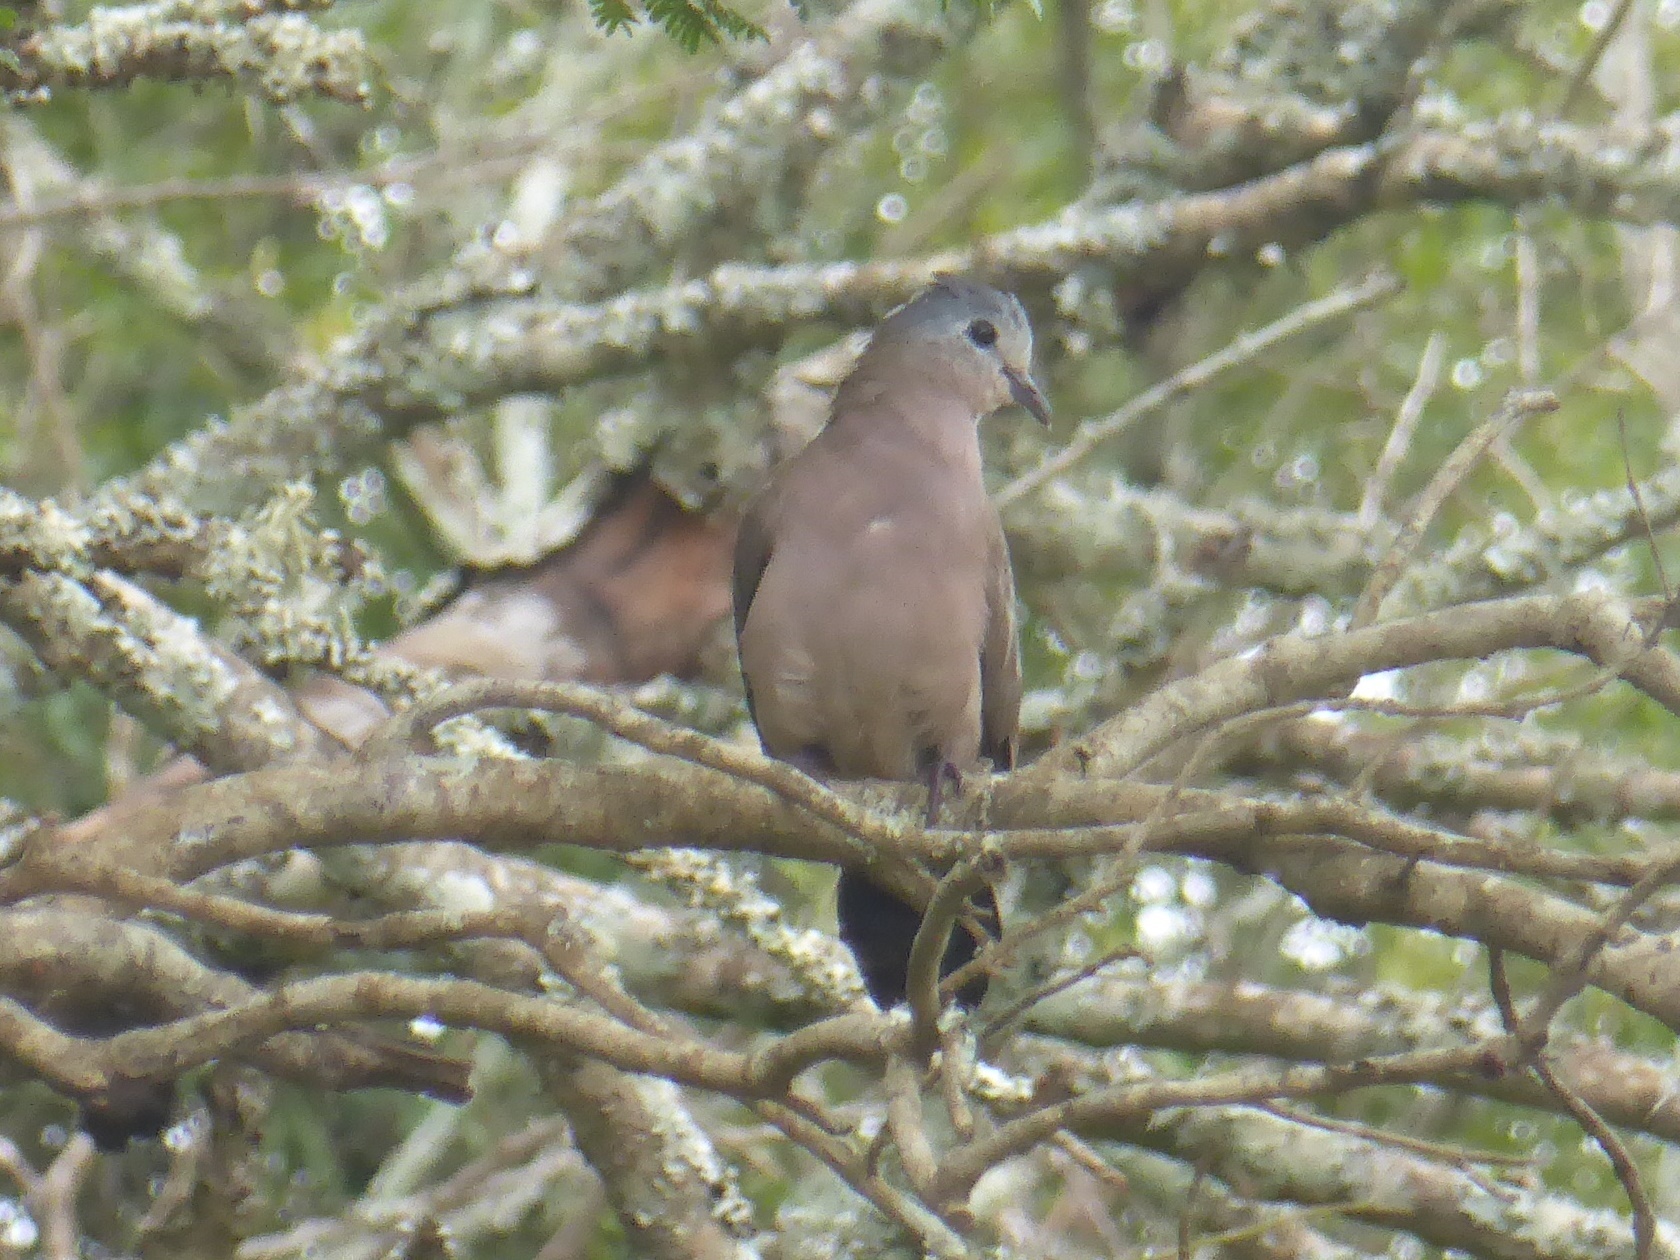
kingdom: Animalia
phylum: Chordata
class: Aves
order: Columbiformes
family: Columbidae
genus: Turtur
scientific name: Turtur chalcospilos
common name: Emerald-spotted wood dove
